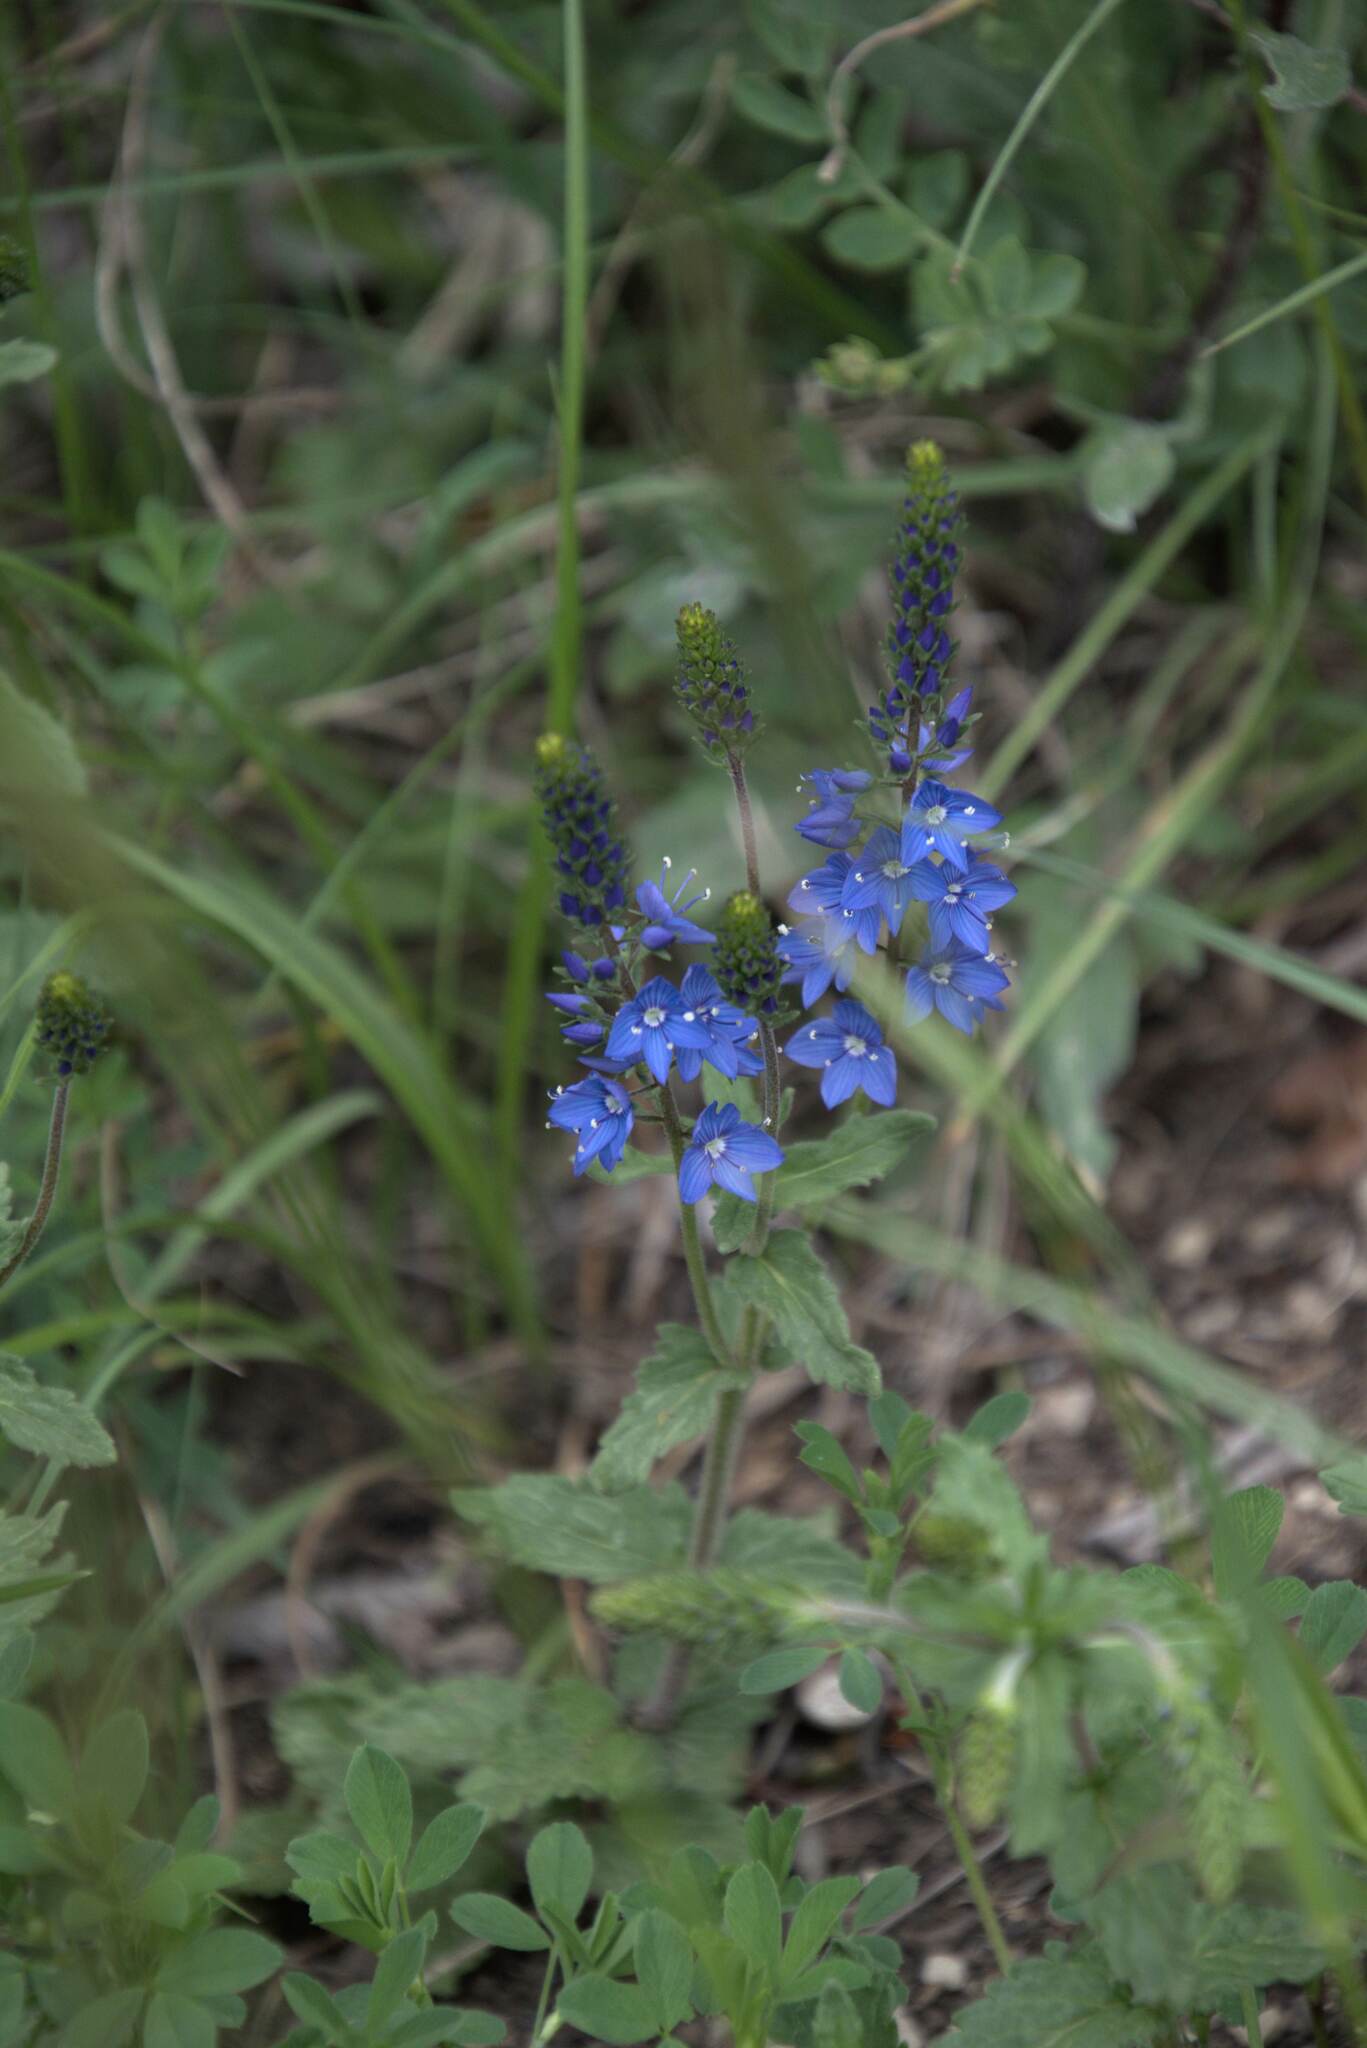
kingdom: Plantae
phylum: Tracheophyta
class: Magnoliopsida
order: Lamiales
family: Plantaginaceae
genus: Veronica
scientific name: Veronica teucrium
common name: Large speedwell
